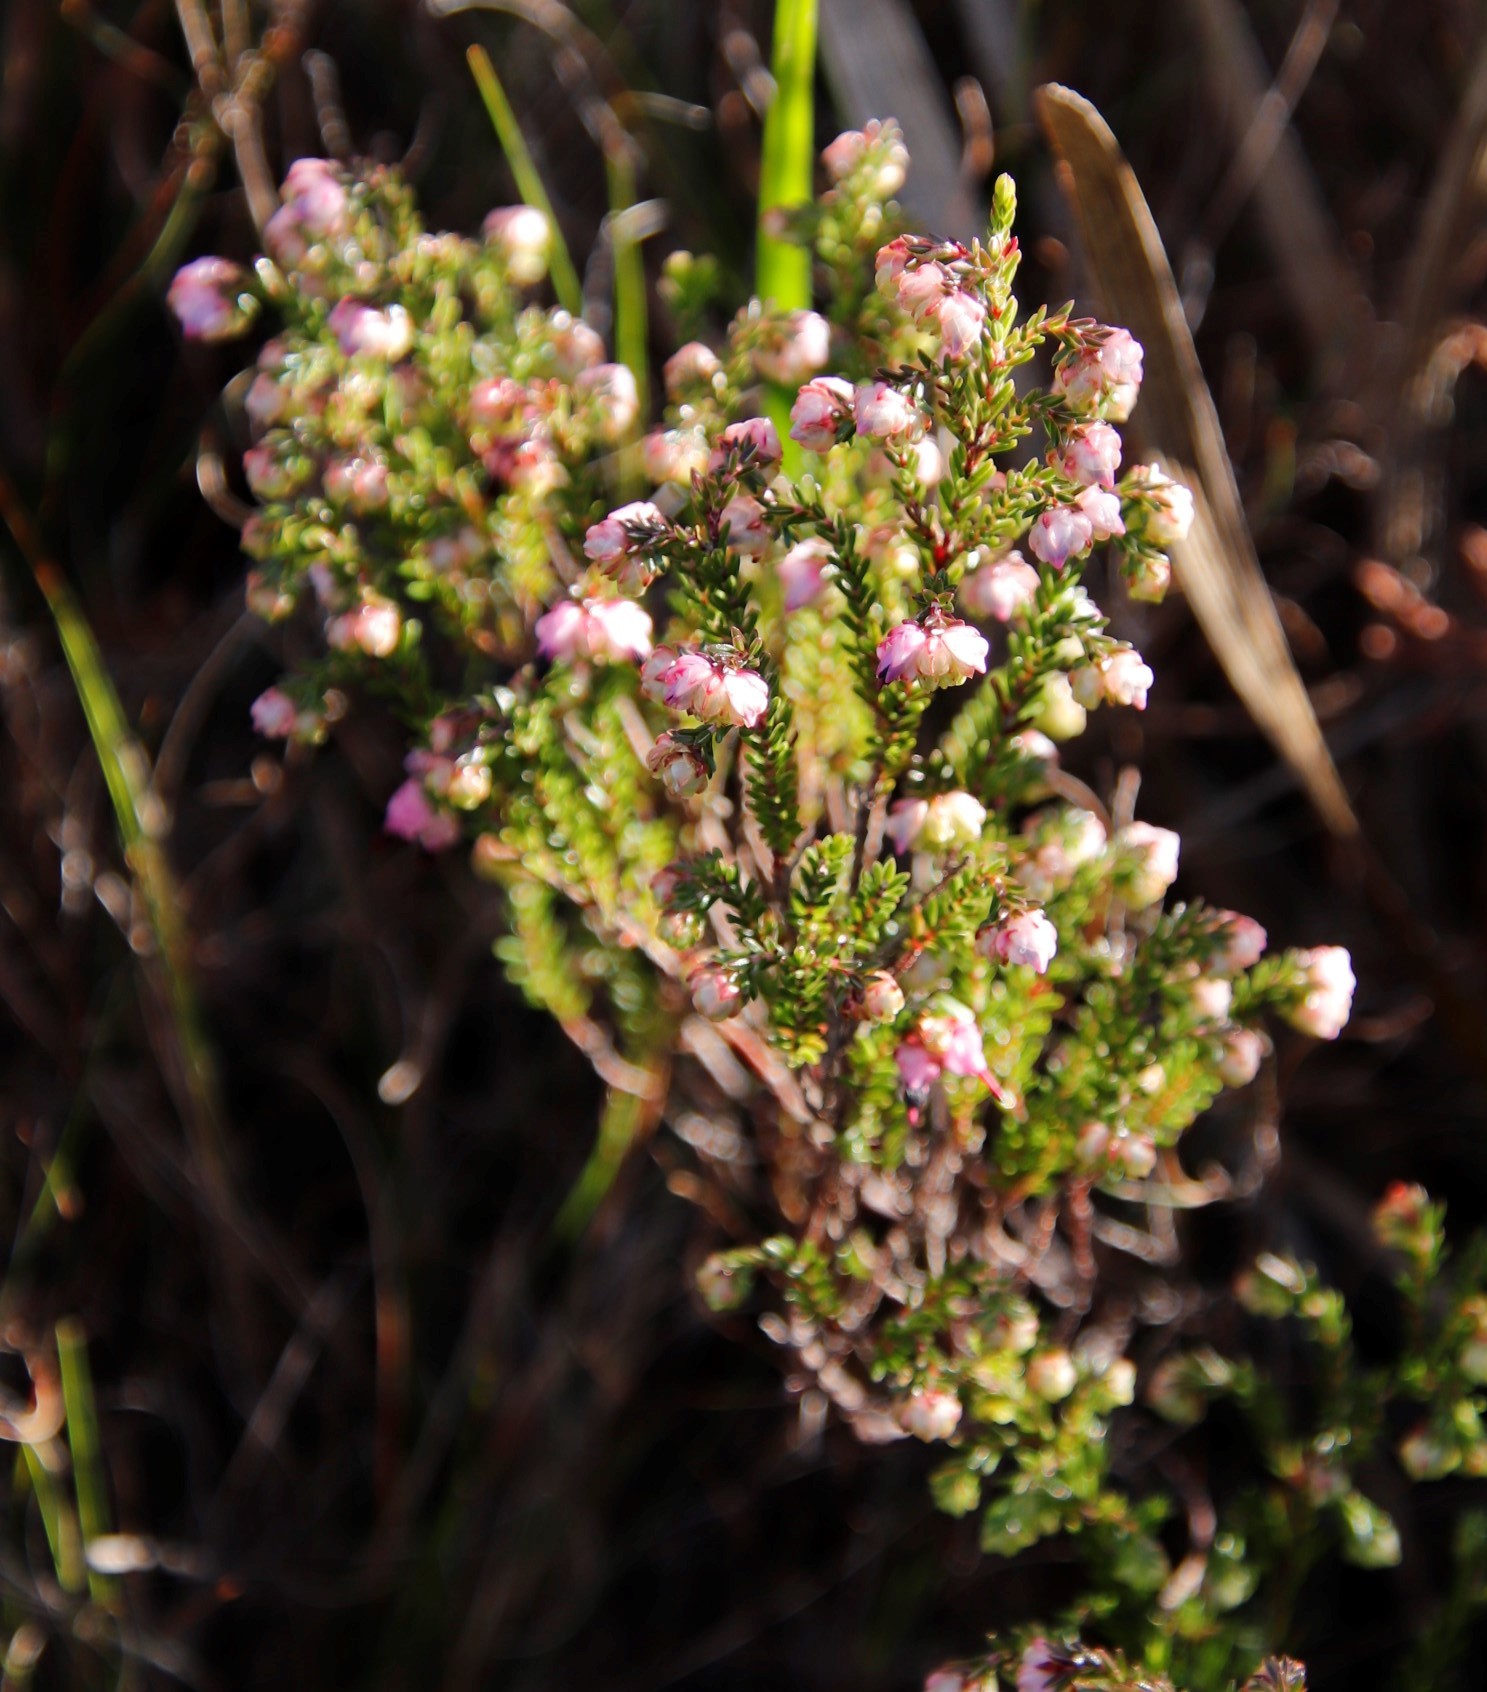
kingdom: Plantae
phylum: Tracheophyta
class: Magnoliopsida
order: Ericales
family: Ericaceae
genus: Erica
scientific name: Erica spumosa
